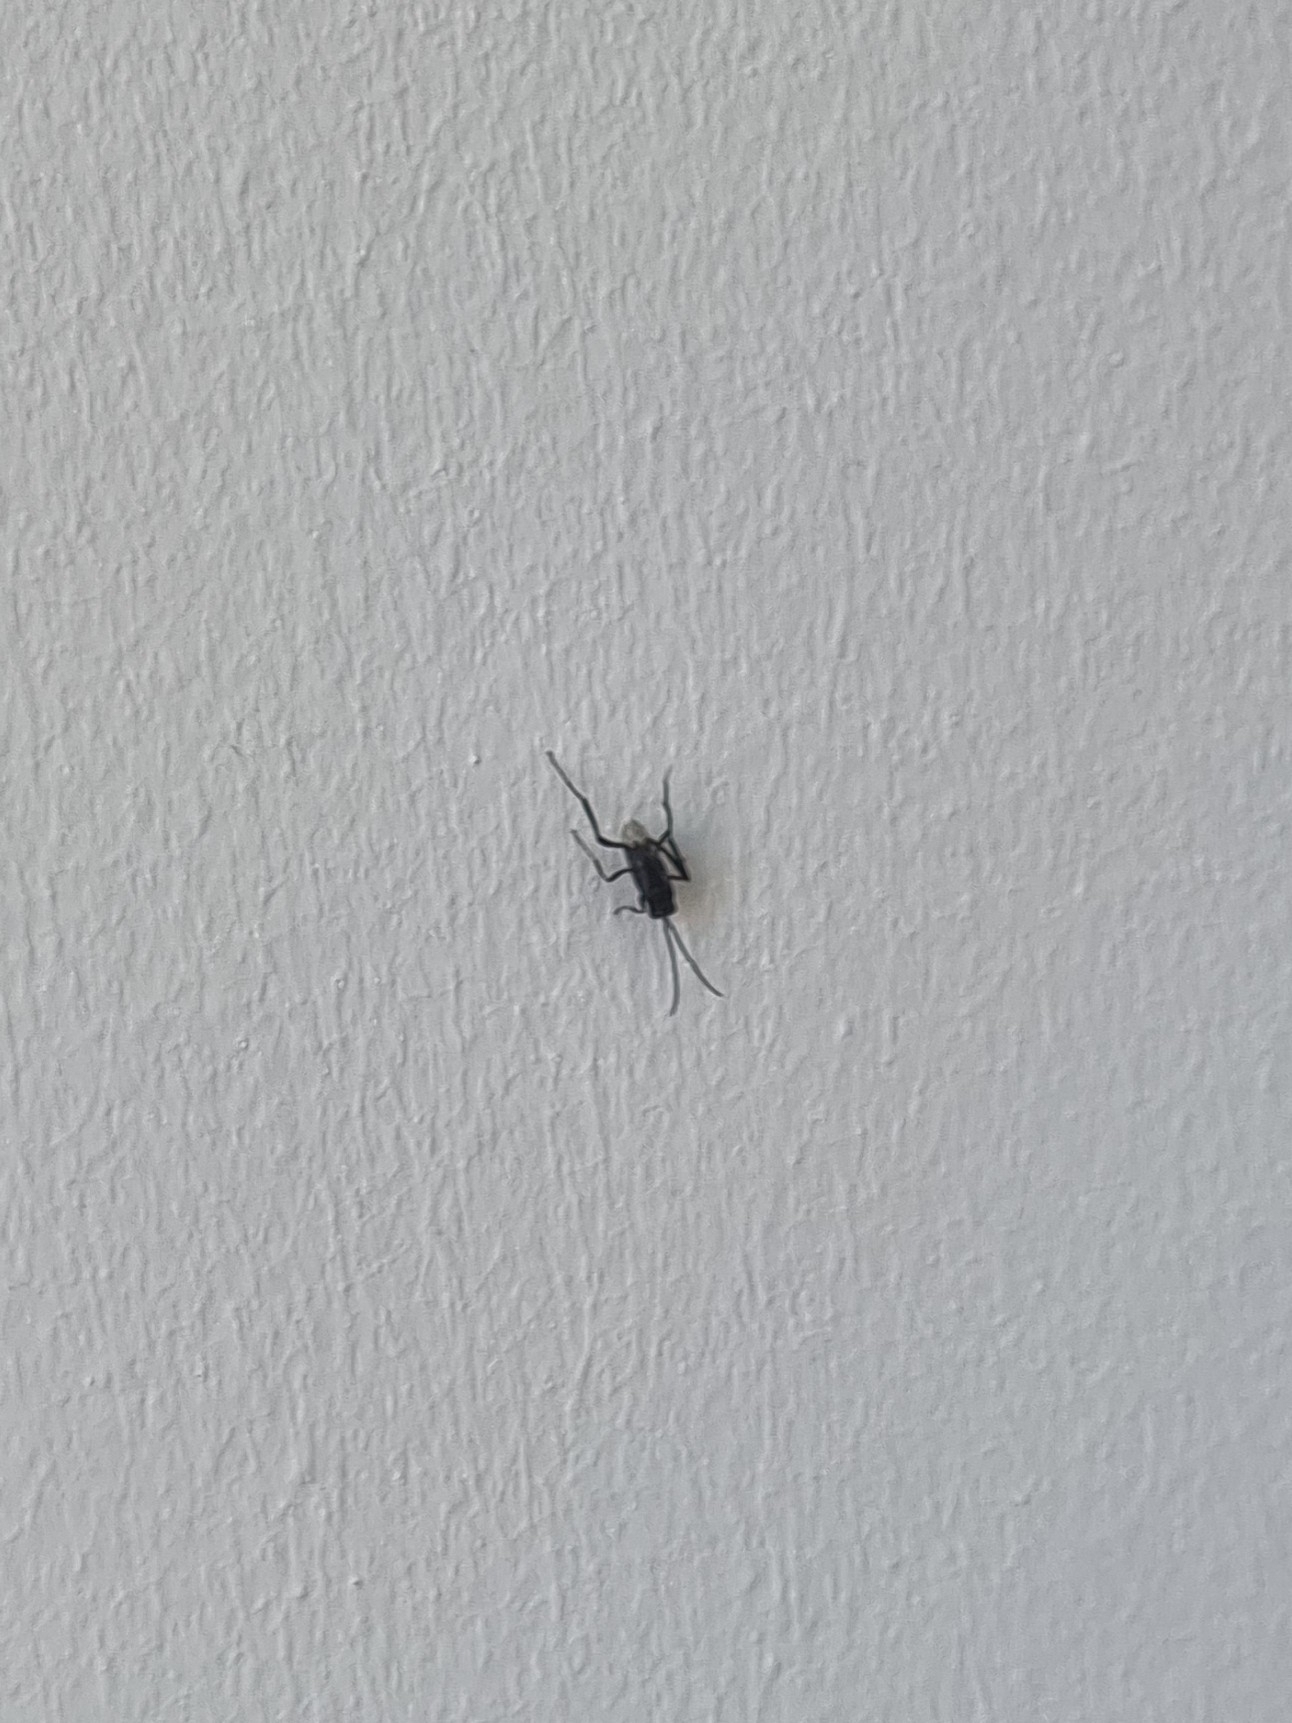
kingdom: Animalia
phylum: Arthropoda
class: Insecta
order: Hymenoptera
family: Evaniidae
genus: Evania
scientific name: Evania appendigaster
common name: Ensign wasp
